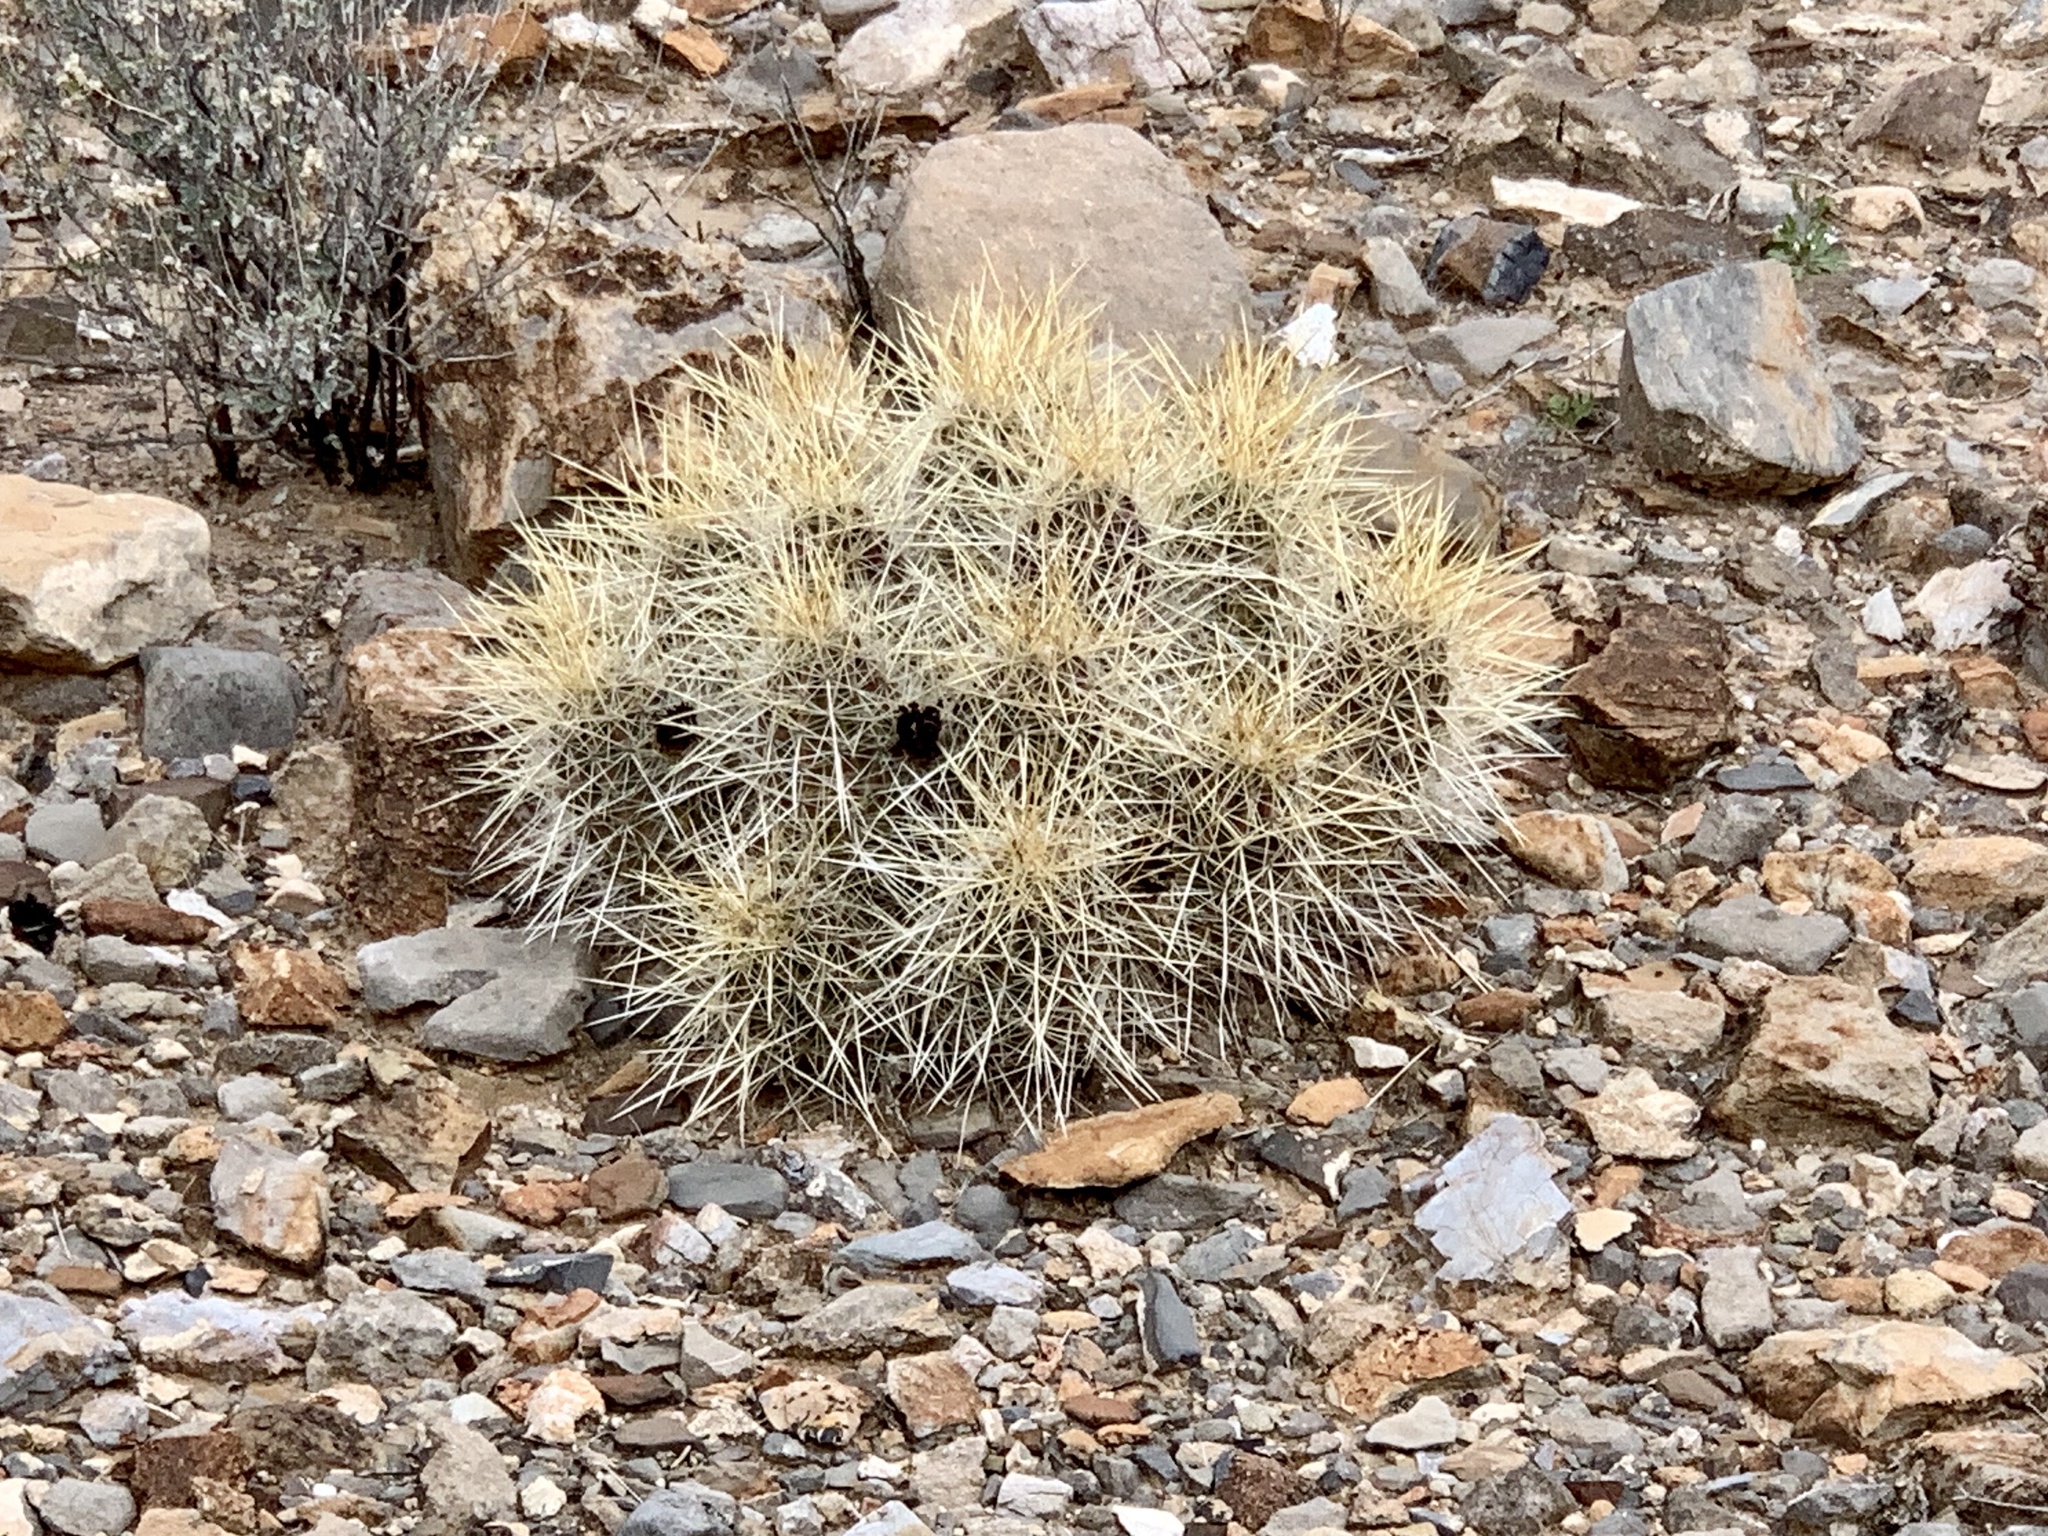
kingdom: Plantae
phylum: Tracheophyta
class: Magnoliopsida
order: Caryophyllales
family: Cactaceae
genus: Echinocereus
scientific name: Echinocereus stramineus
